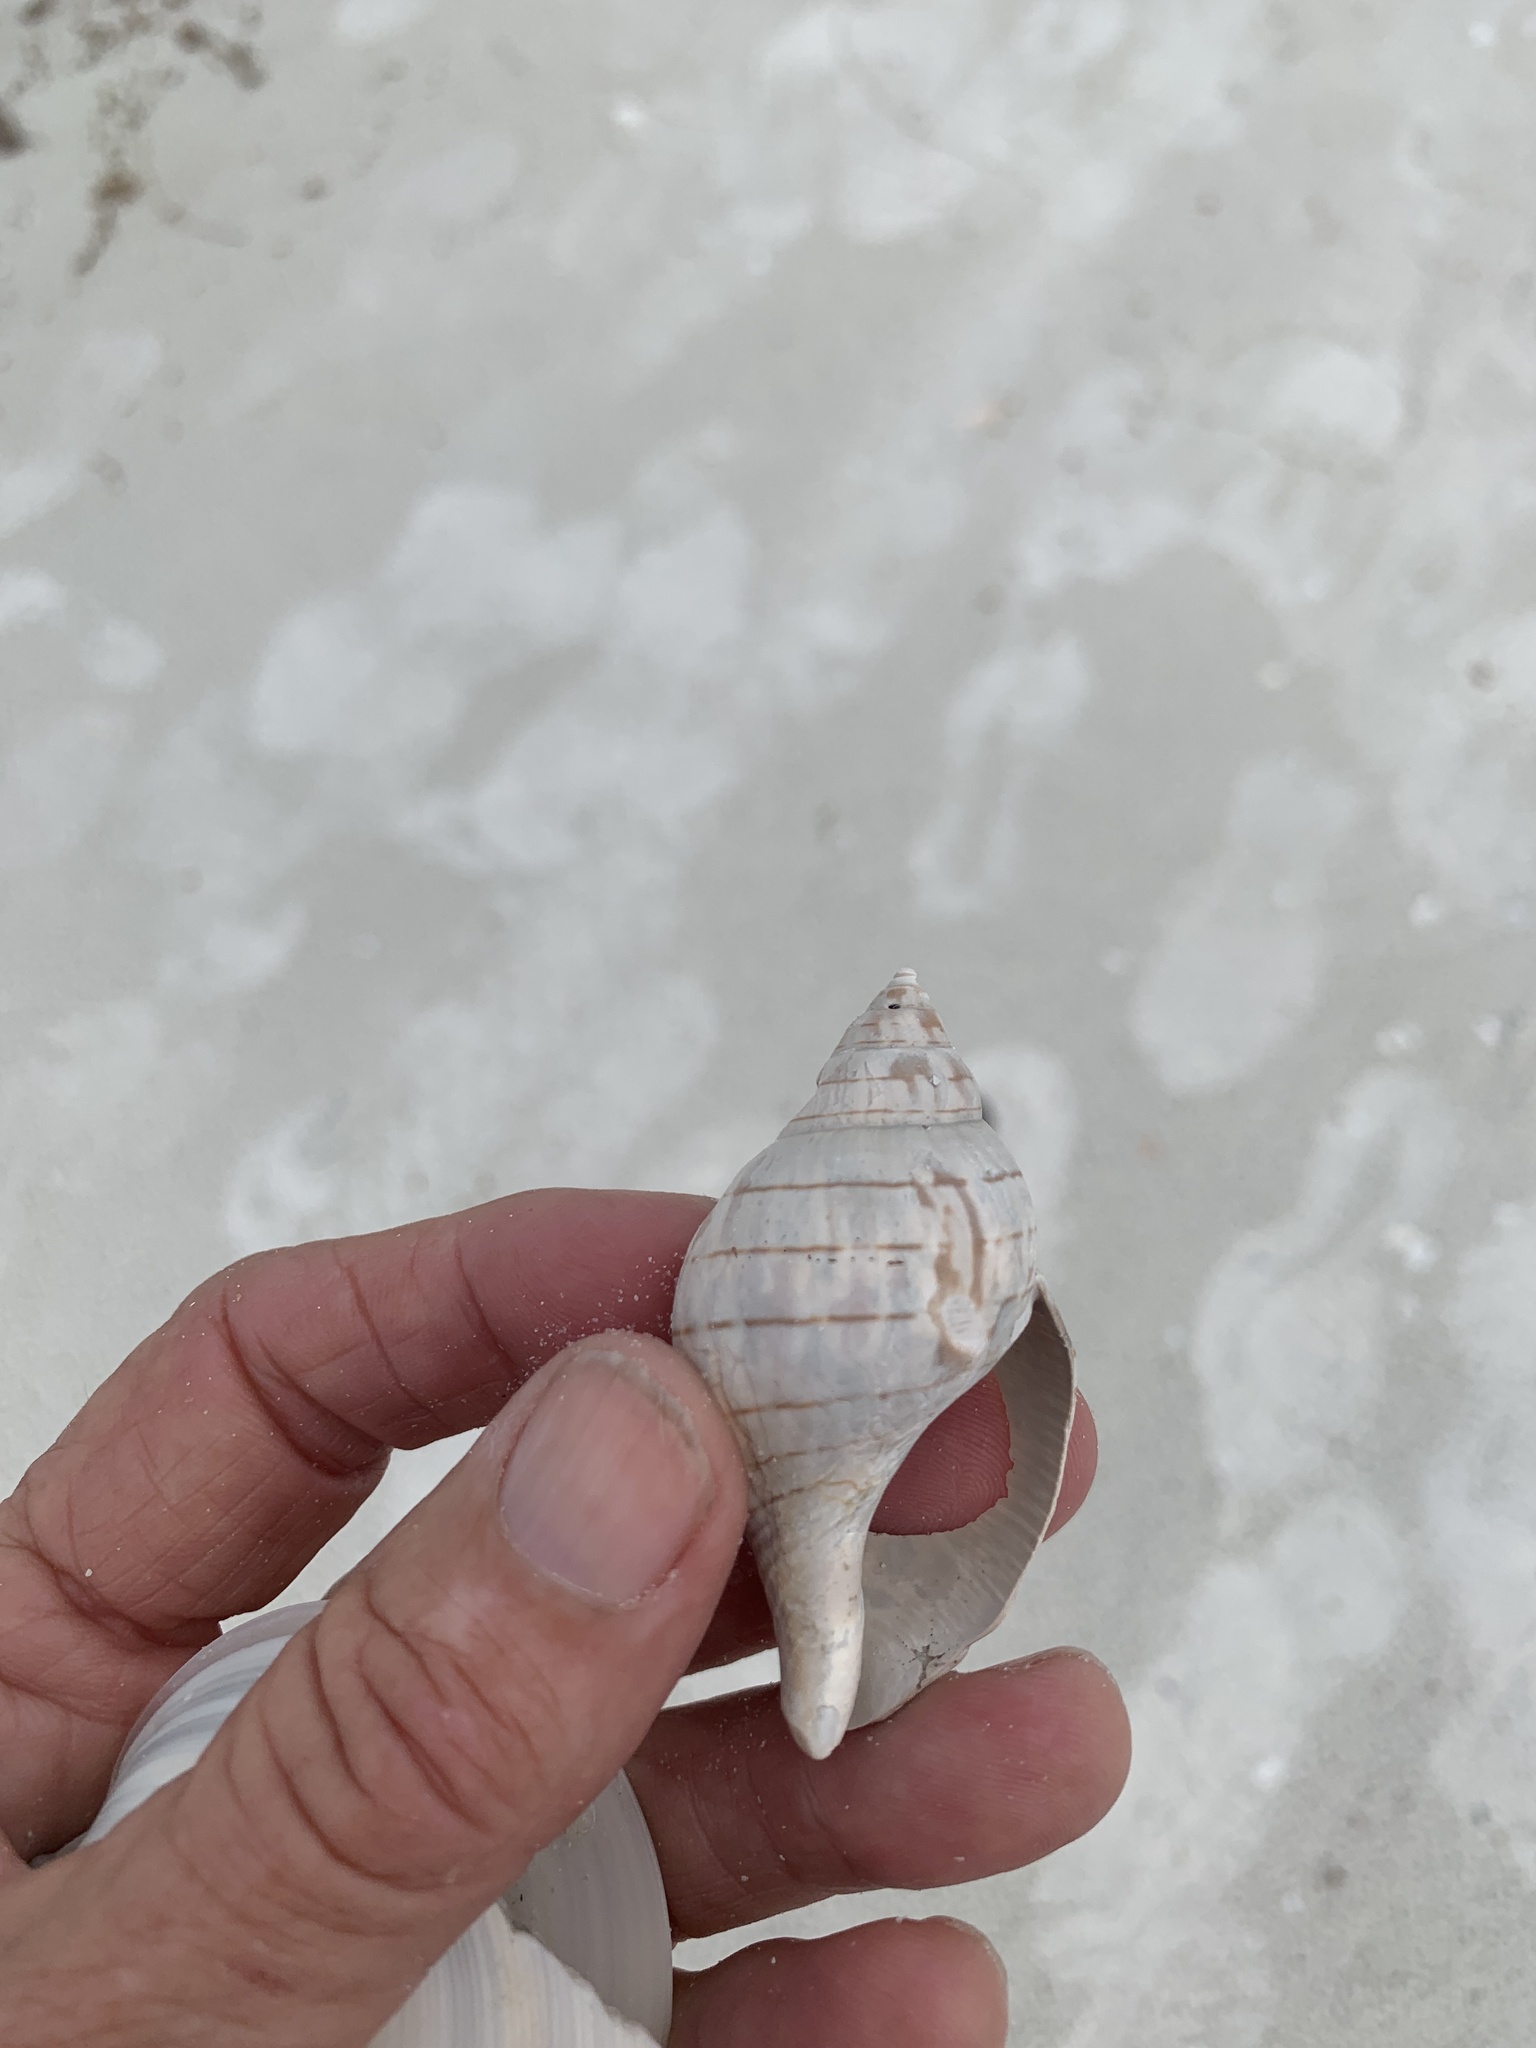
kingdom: Animalia
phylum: Mollusca
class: Gastropoda
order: Neogastropoda
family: Fasciolariidae
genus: Cinctura
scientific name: Cinctura hunteria
